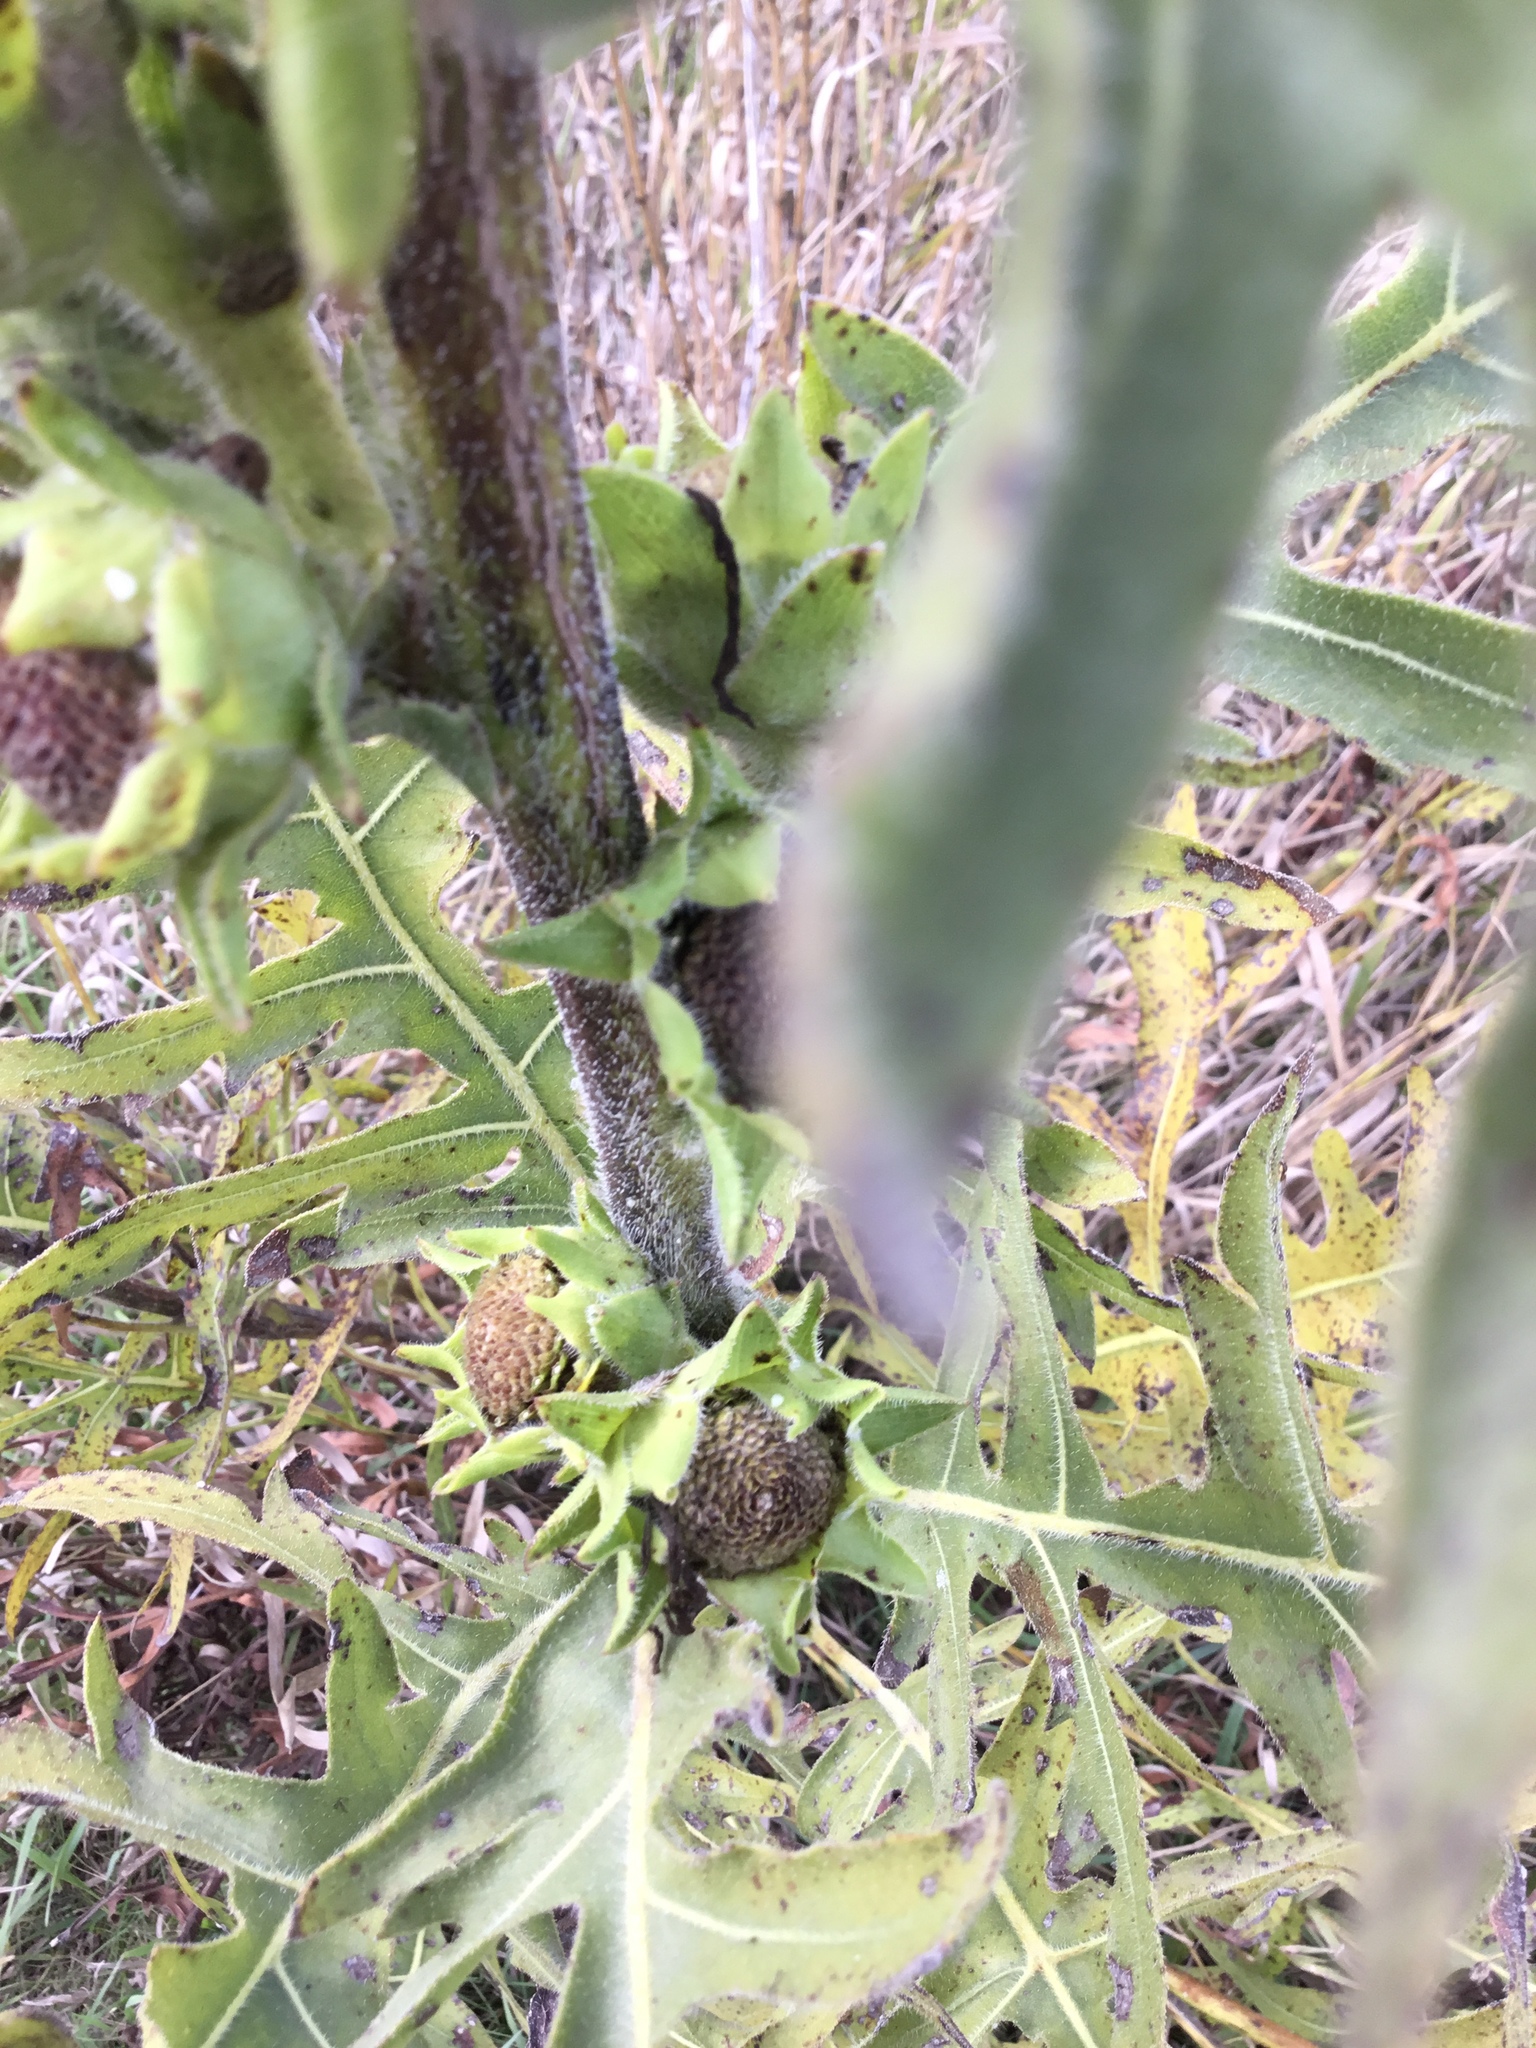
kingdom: Plantae
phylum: Tracheophyta
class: Magnoliopsida
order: Asterales
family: Asteraceae
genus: Silphium
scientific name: Silphium laciniatum
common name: Polarplant
